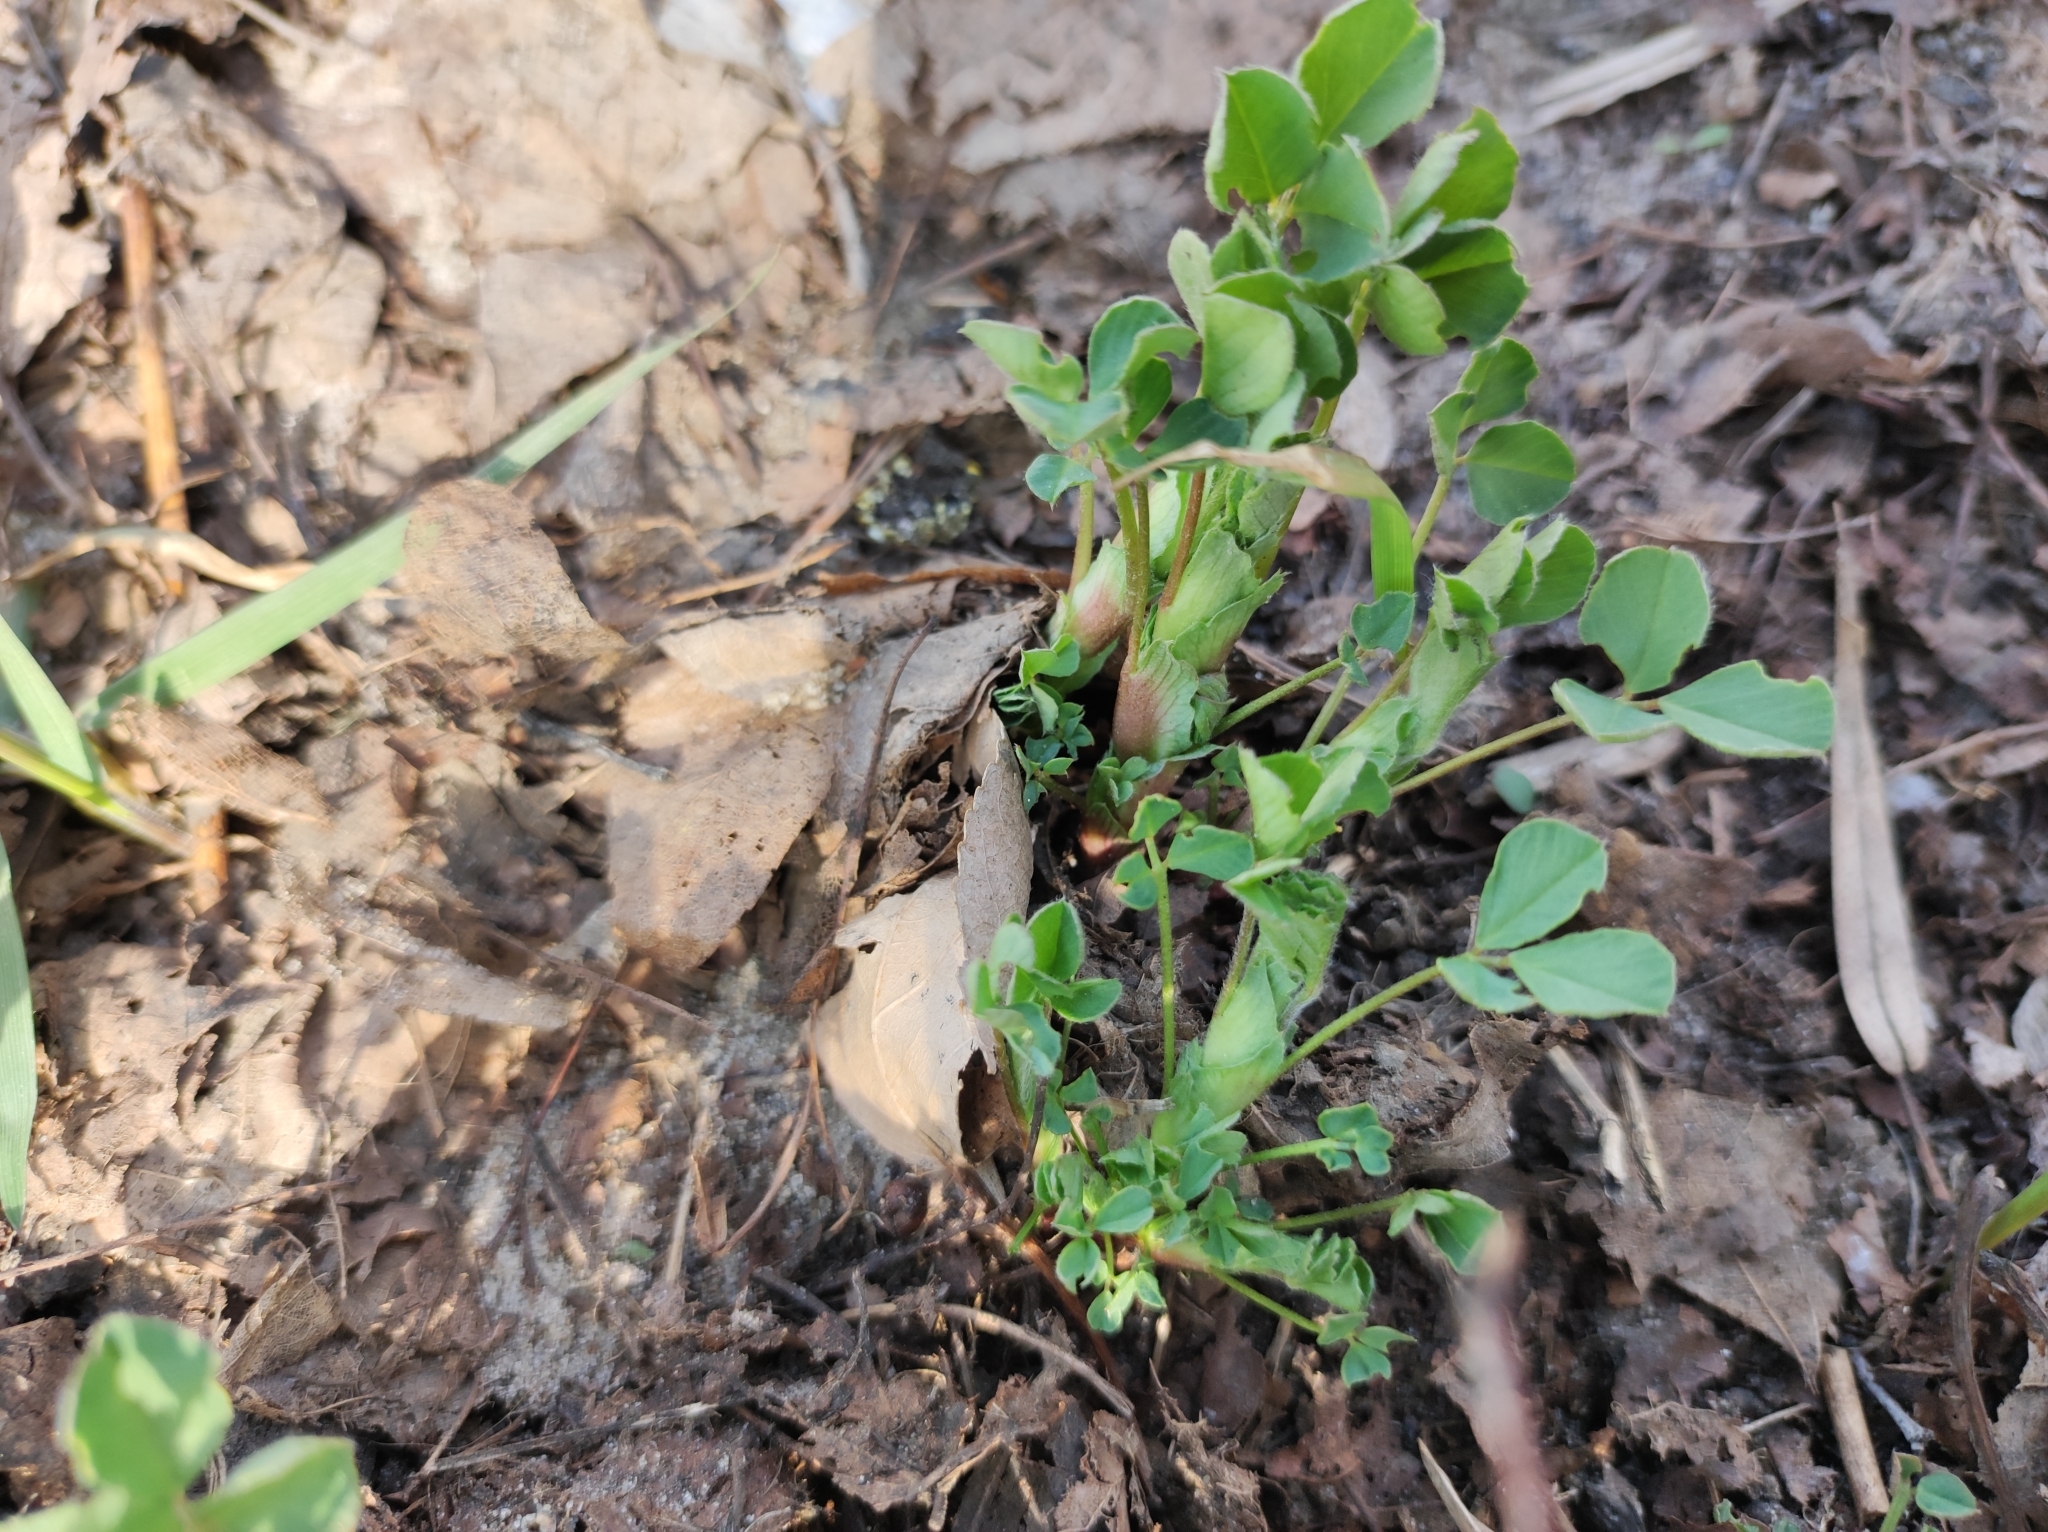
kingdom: Plantae
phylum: Tracheophyta
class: Magnoliopsida
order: Fabales
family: Fabaceae
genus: Medicago
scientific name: Medicago lupulina
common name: Black medick
